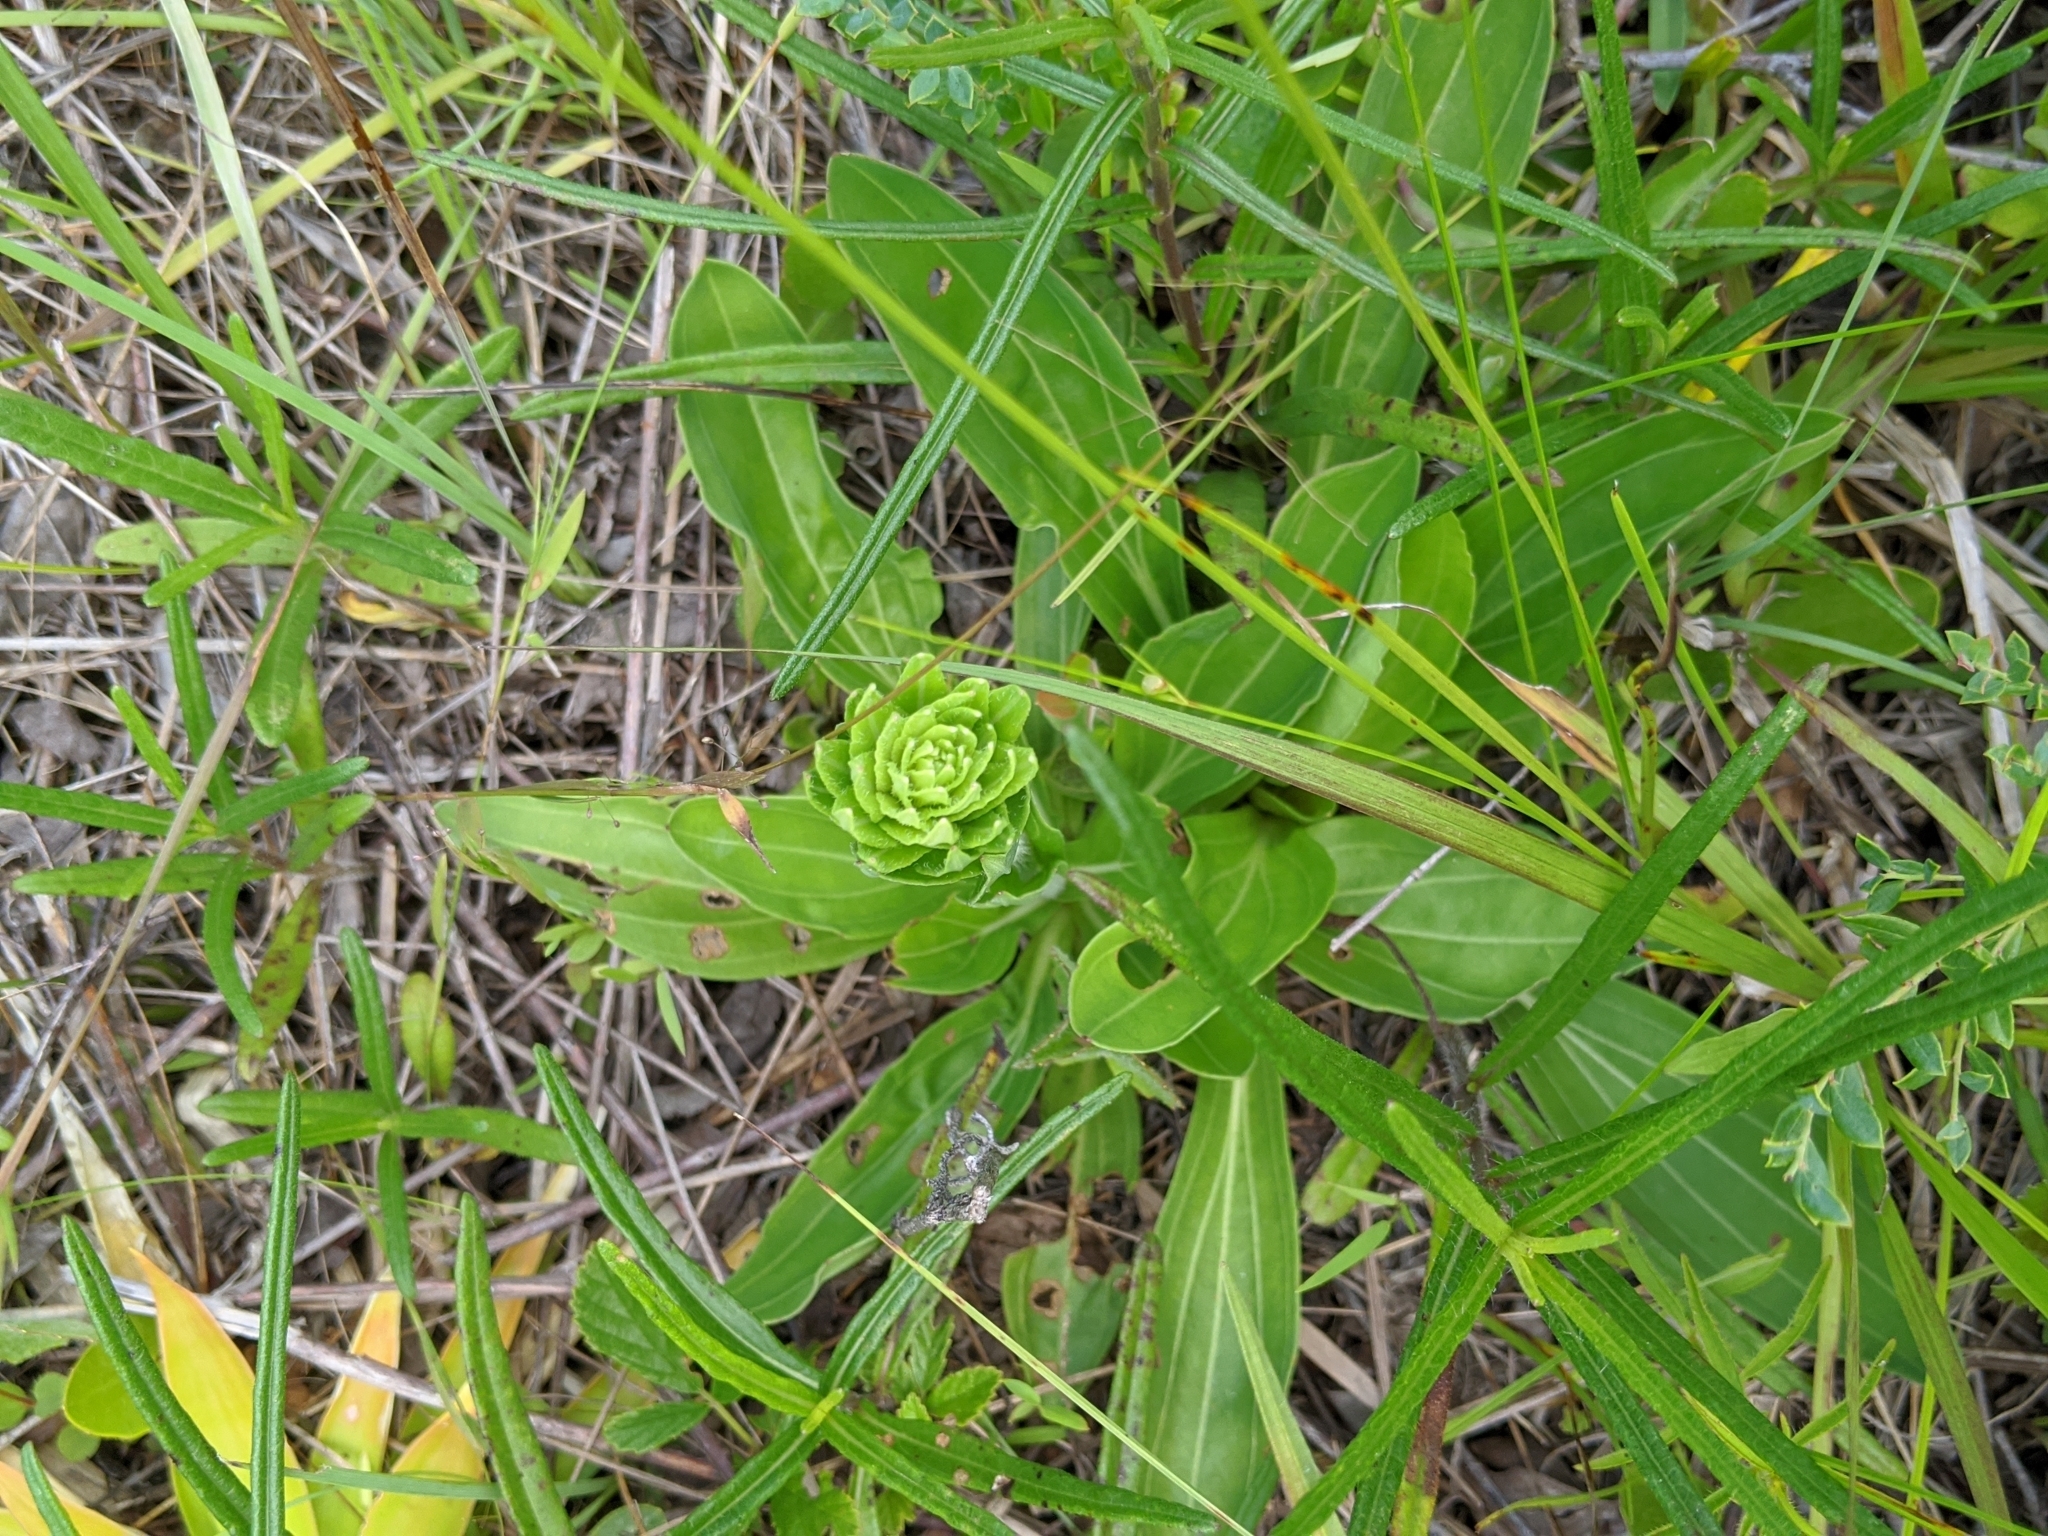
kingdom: Plantae
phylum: Tracheophyta
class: Magnoliopsida
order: Asterales
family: Asteraceae
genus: Carphephorus
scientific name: Carphephorus paniculatus
